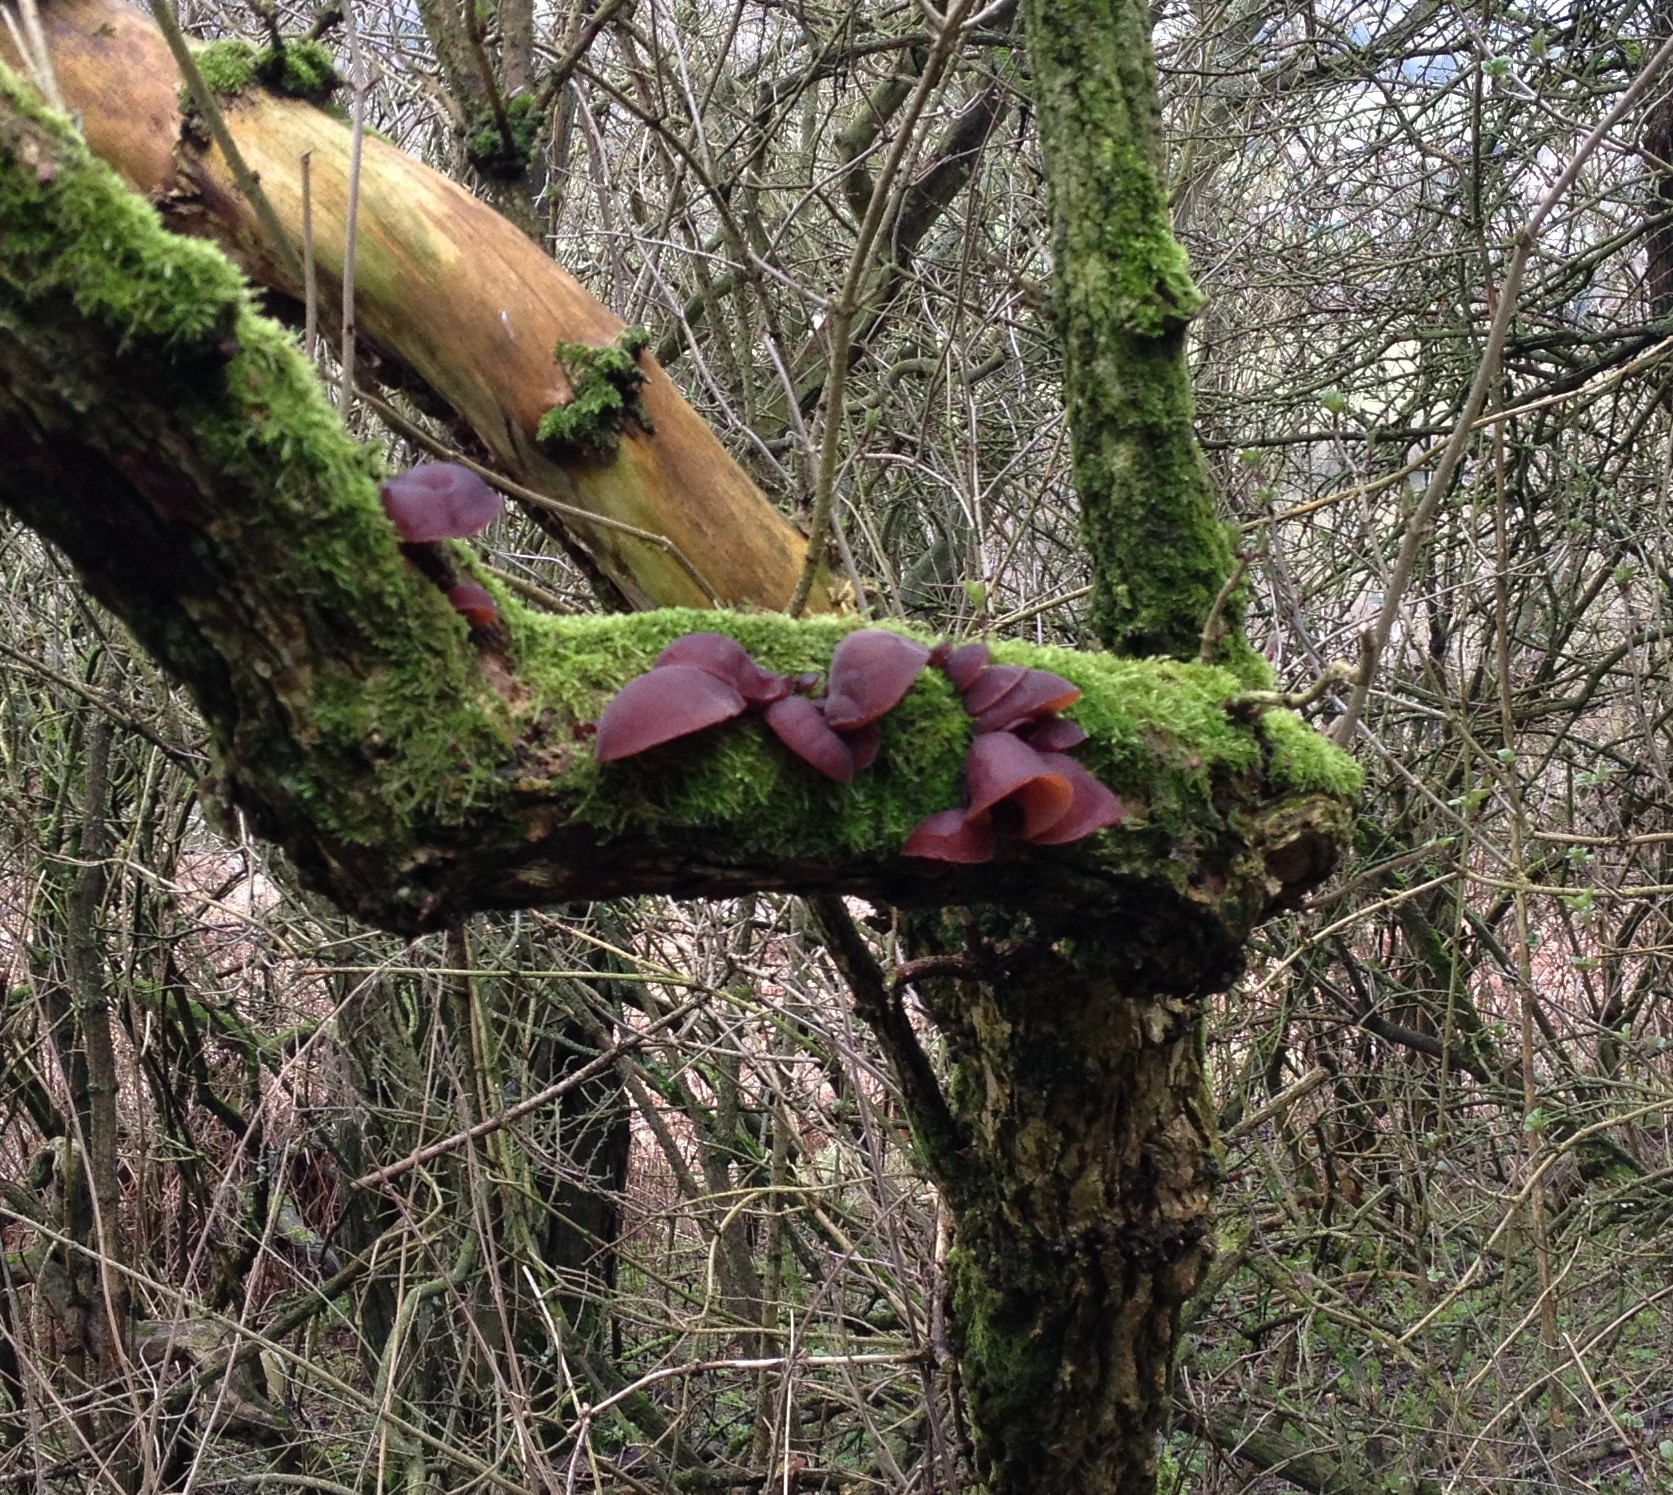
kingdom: Fungi
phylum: Basidiomycota
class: Agaricomycetes
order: Auriculariales
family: Auriculariaceae
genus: Auricularia
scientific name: Auricularia auricula-judae
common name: Jelly ear
